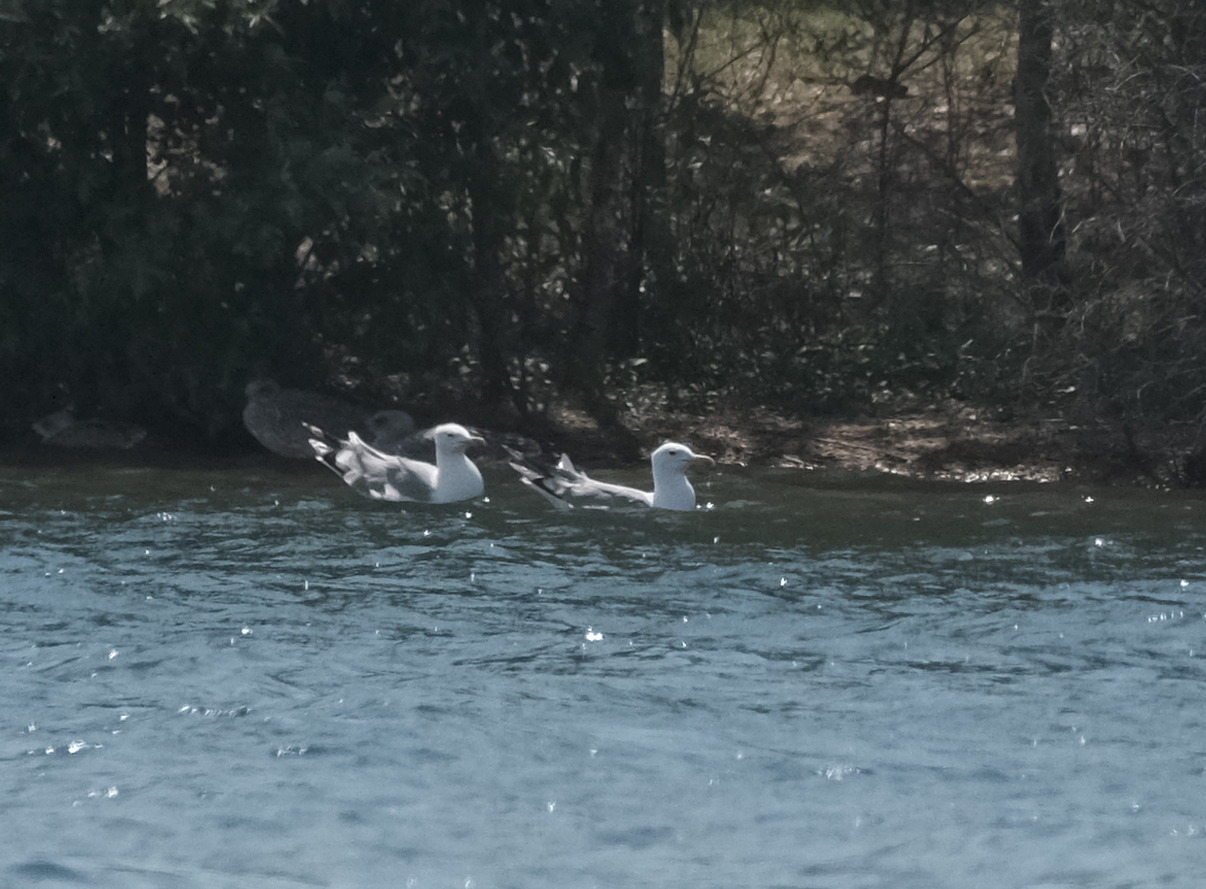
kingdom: Animalia
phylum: Chordata
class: Aves
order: Charadriiformes
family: Laridae
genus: Larus
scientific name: Larus cachinnans
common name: Caspian gull
